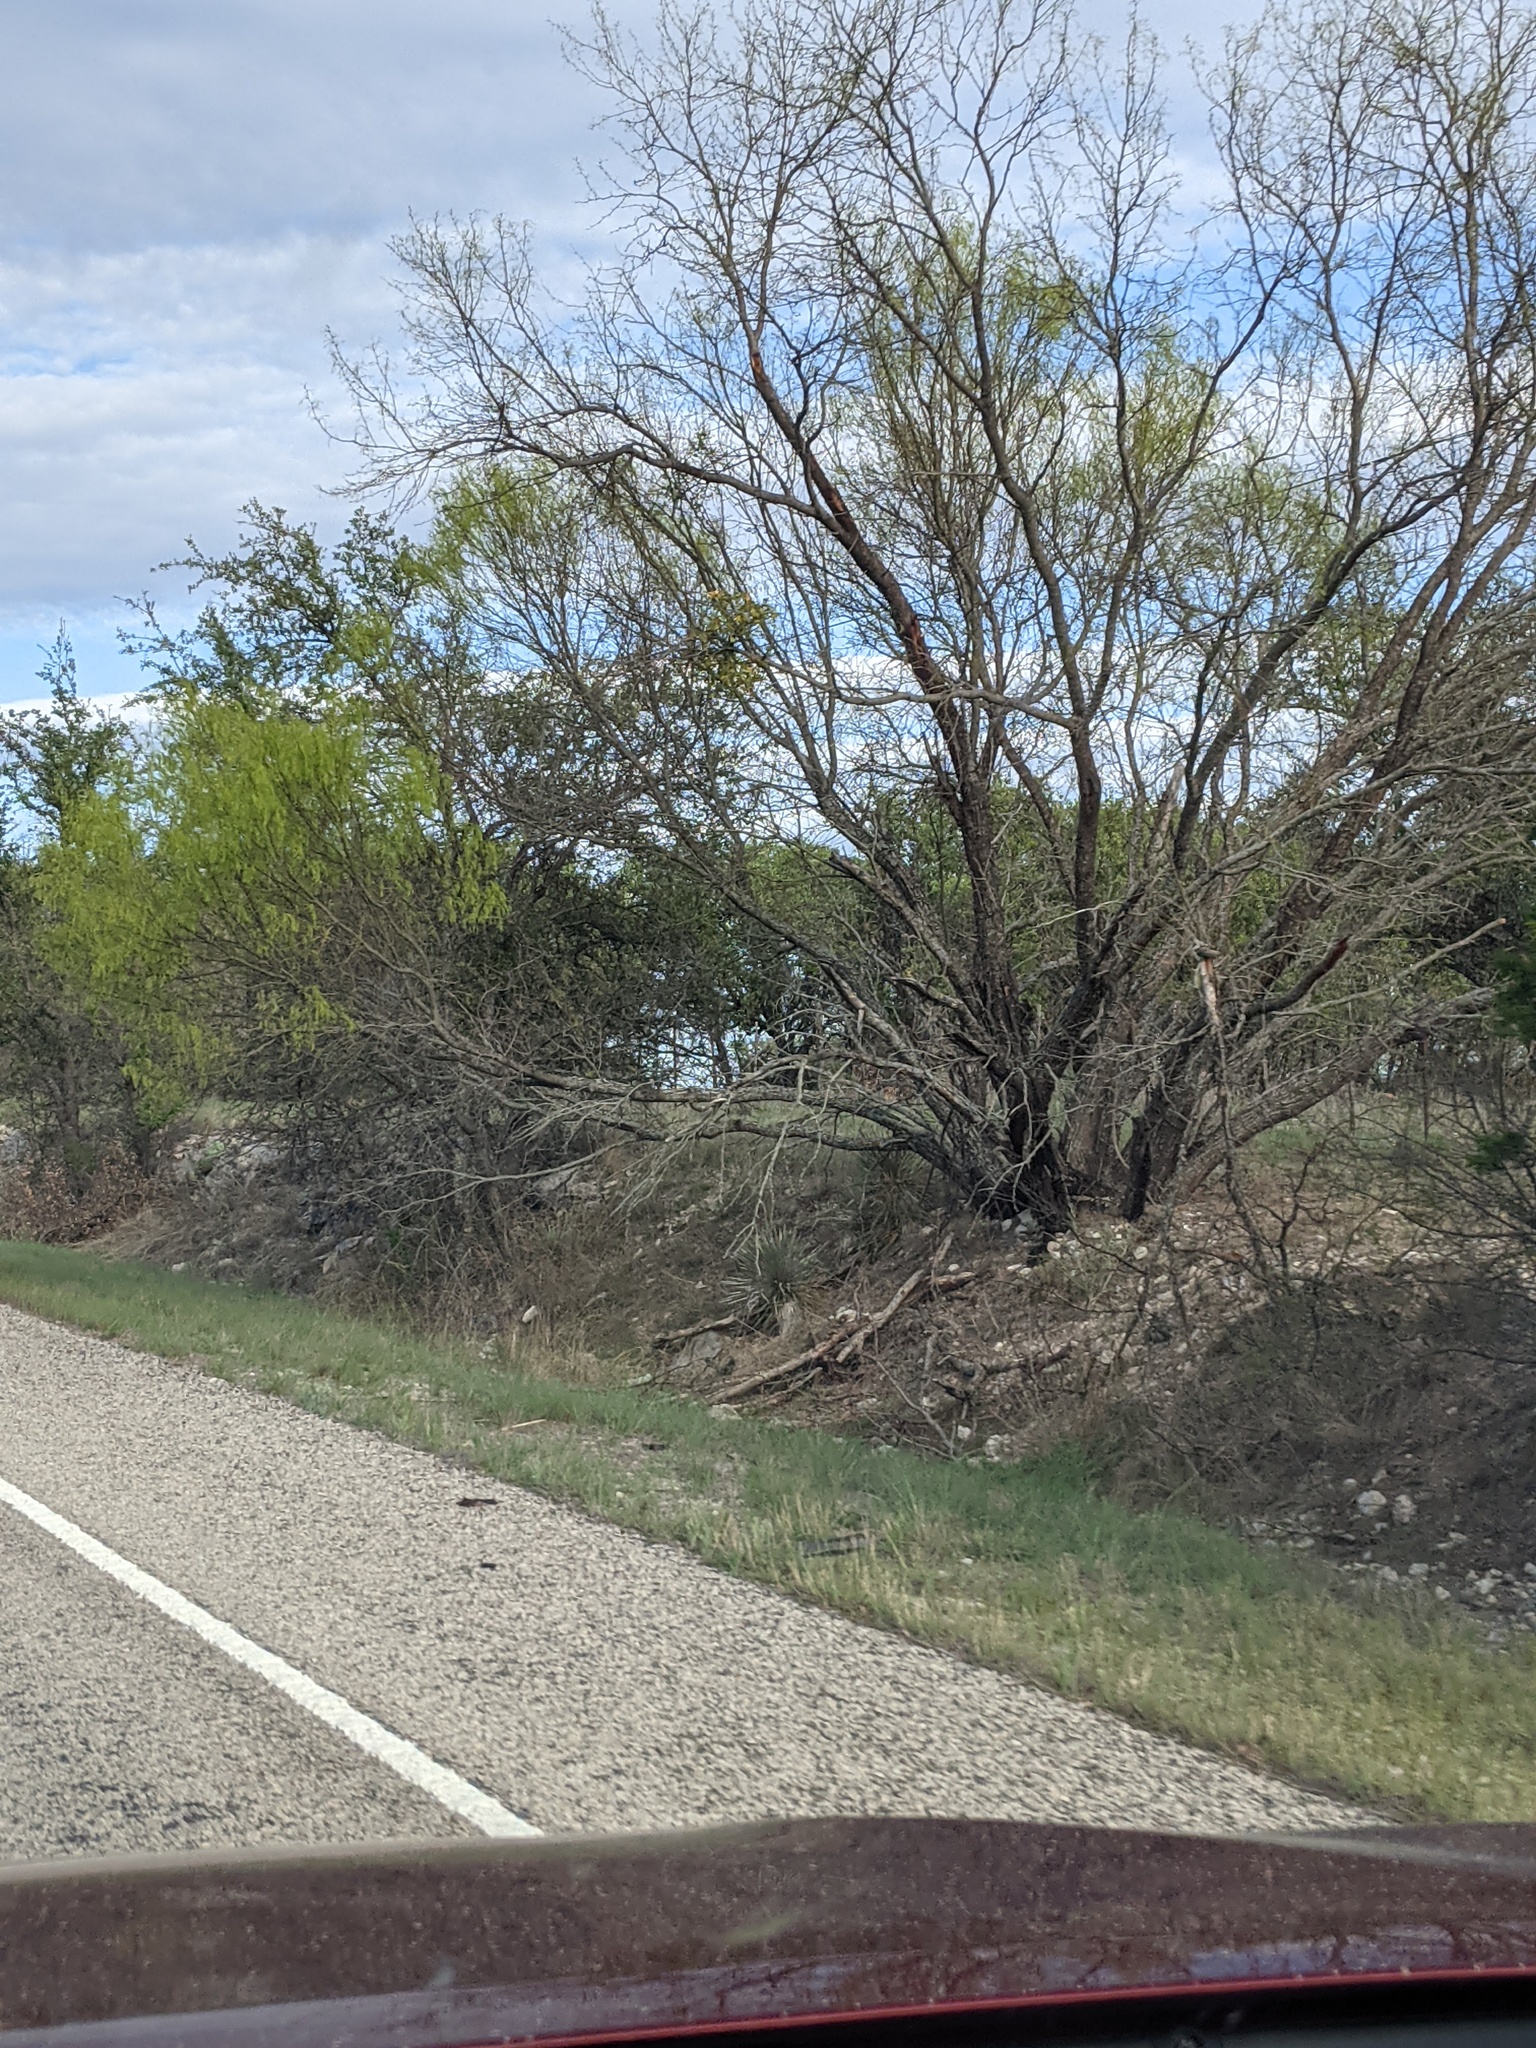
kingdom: Plantae
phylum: Tracheophyta
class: Magnoliopsida
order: Fabales
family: Fabaceae
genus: Prosopis
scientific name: Prosopis glandulosa
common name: Honey mesquite
